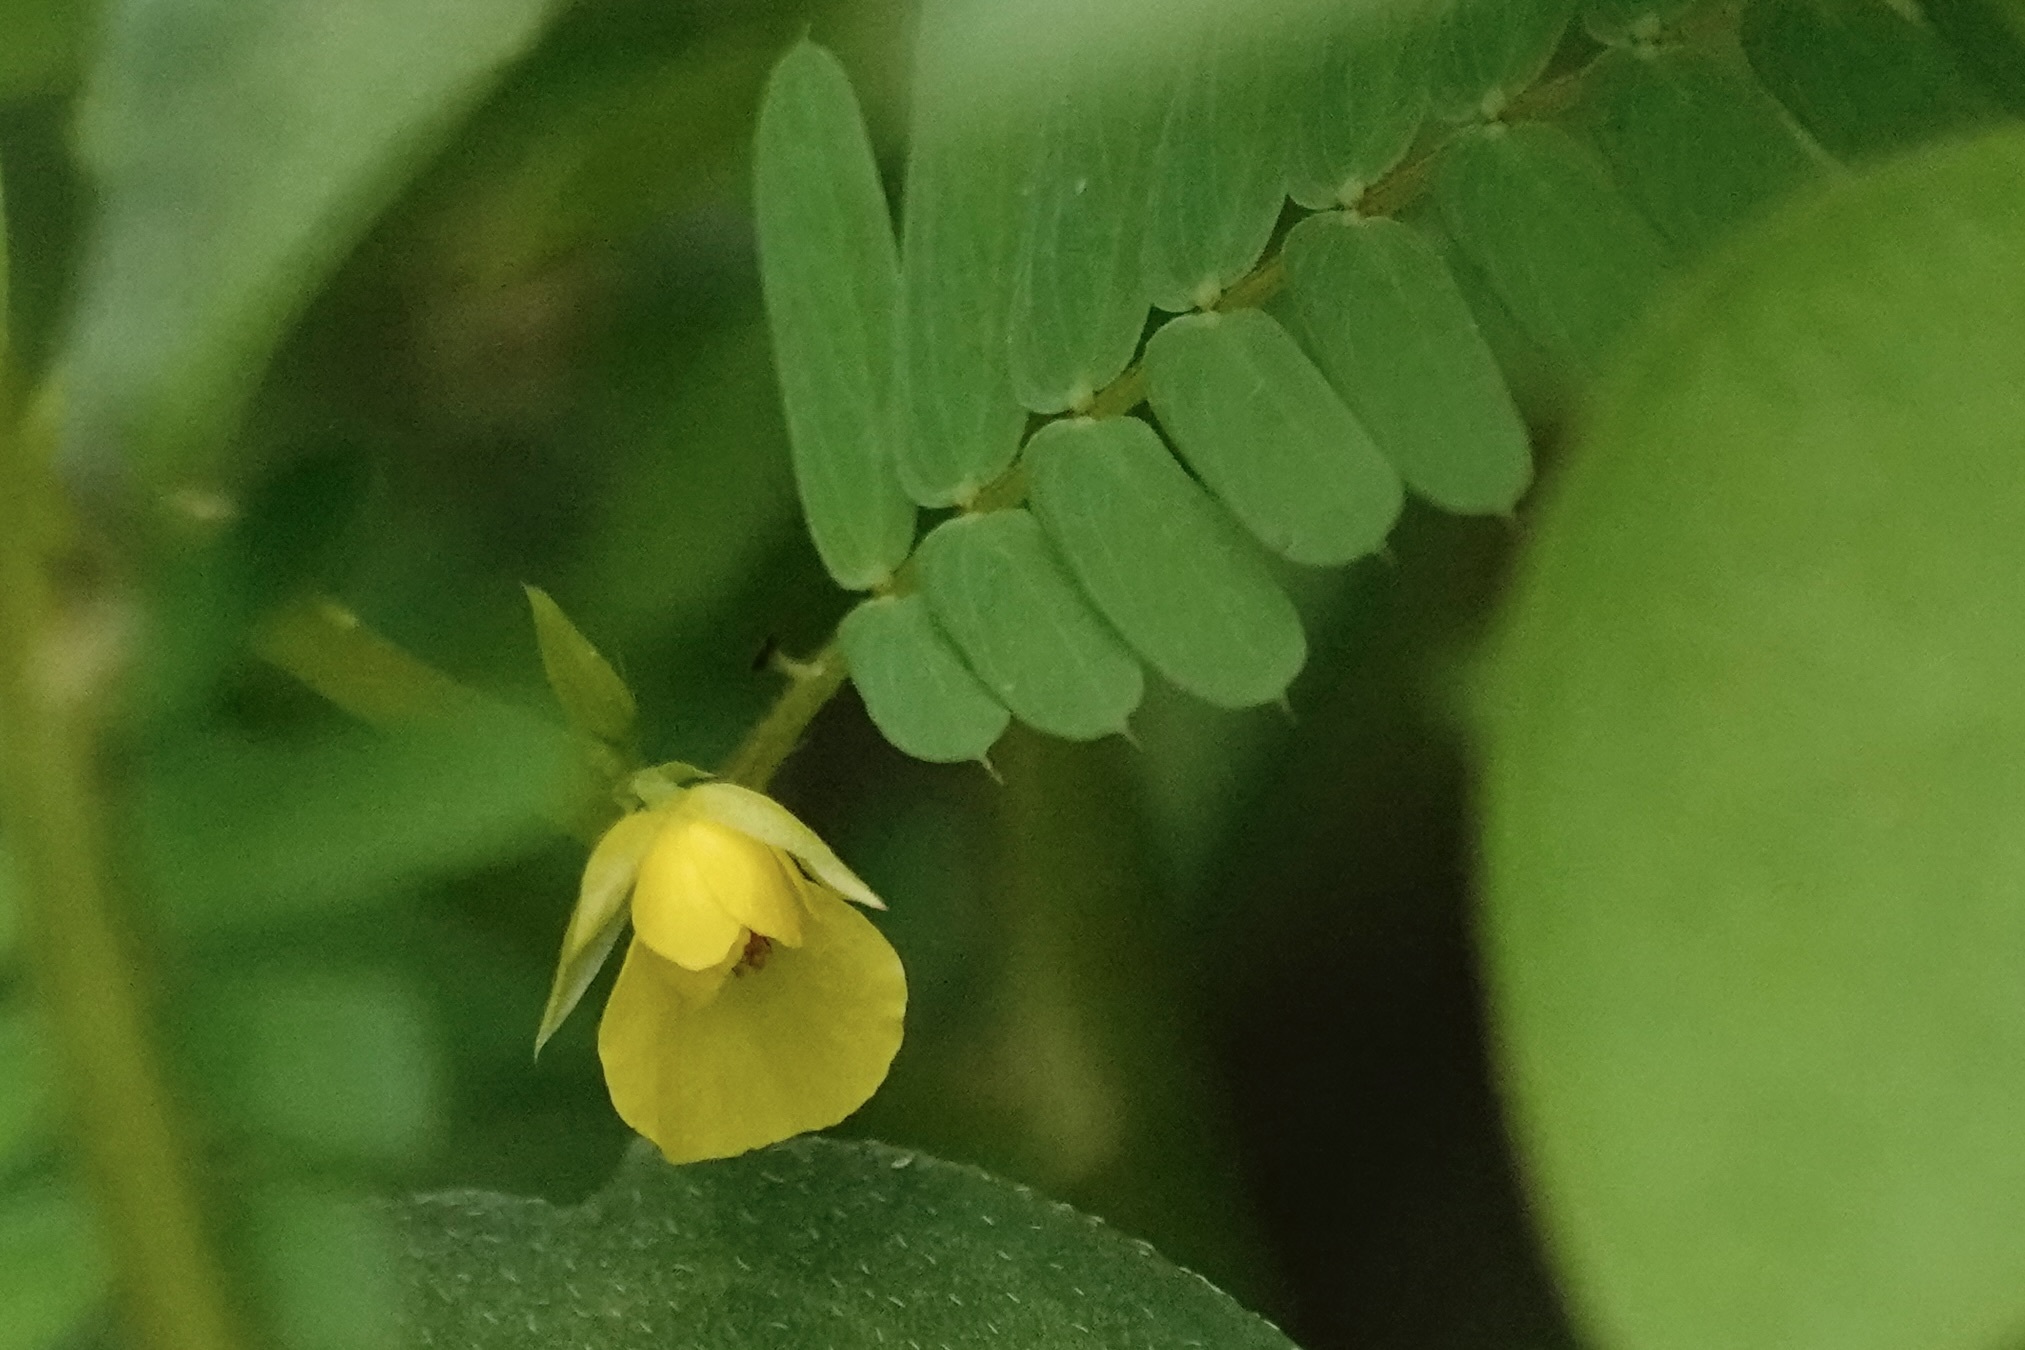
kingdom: Plantae
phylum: Tracheophyta
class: Magnoliopsida
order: Fabales
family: Fabaceae
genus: Chamaecrista
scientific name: Chamaecrista nictitans
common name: Sensitive cassia
